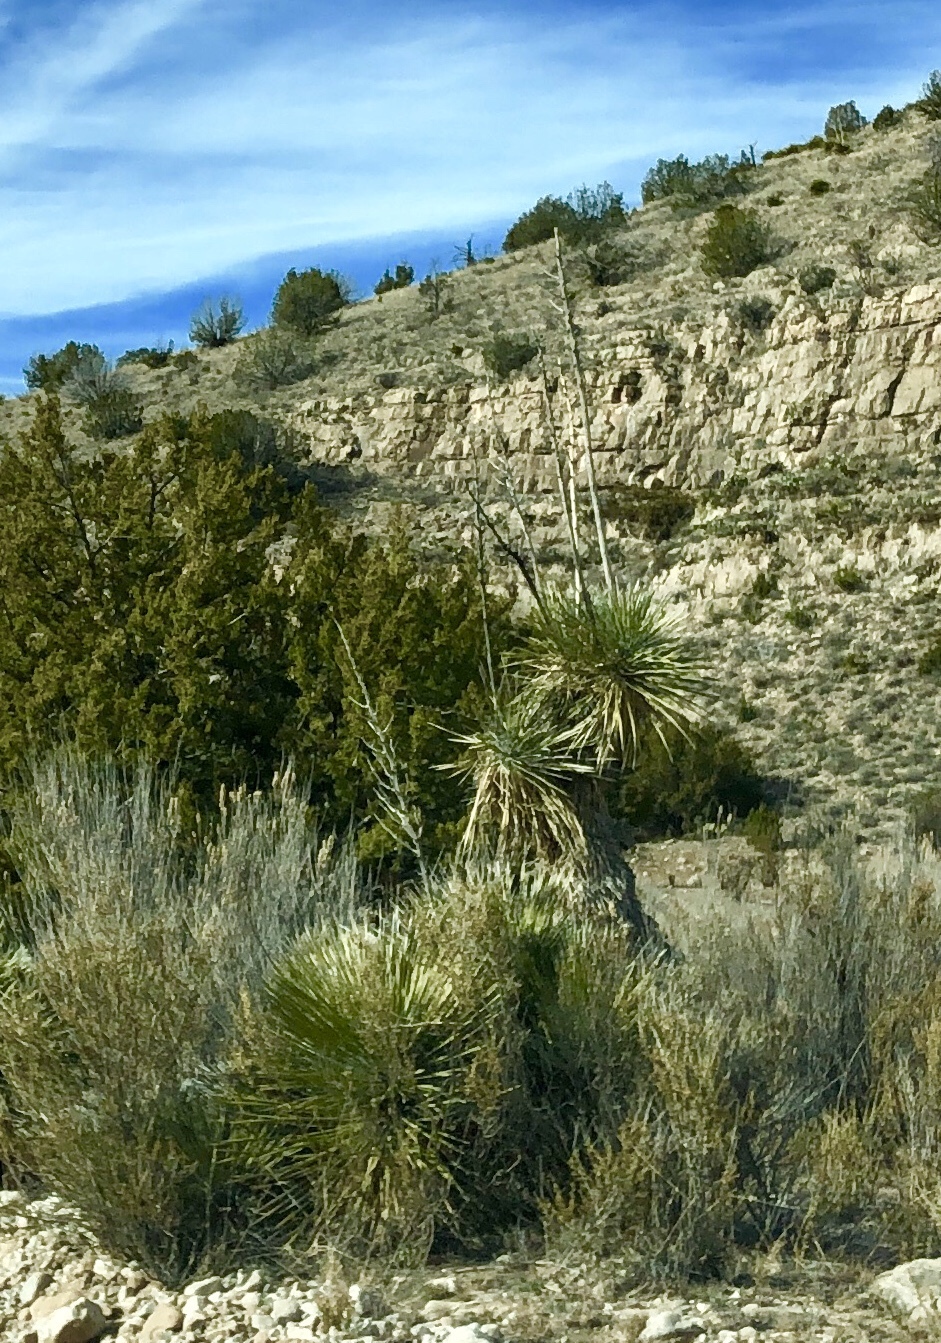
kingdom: Plantae
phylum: Tracheophyta
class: Liliopsida
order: Asparagales
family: Asparagaceae
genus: Yucca
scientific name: Yucca elata
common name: Palmella
